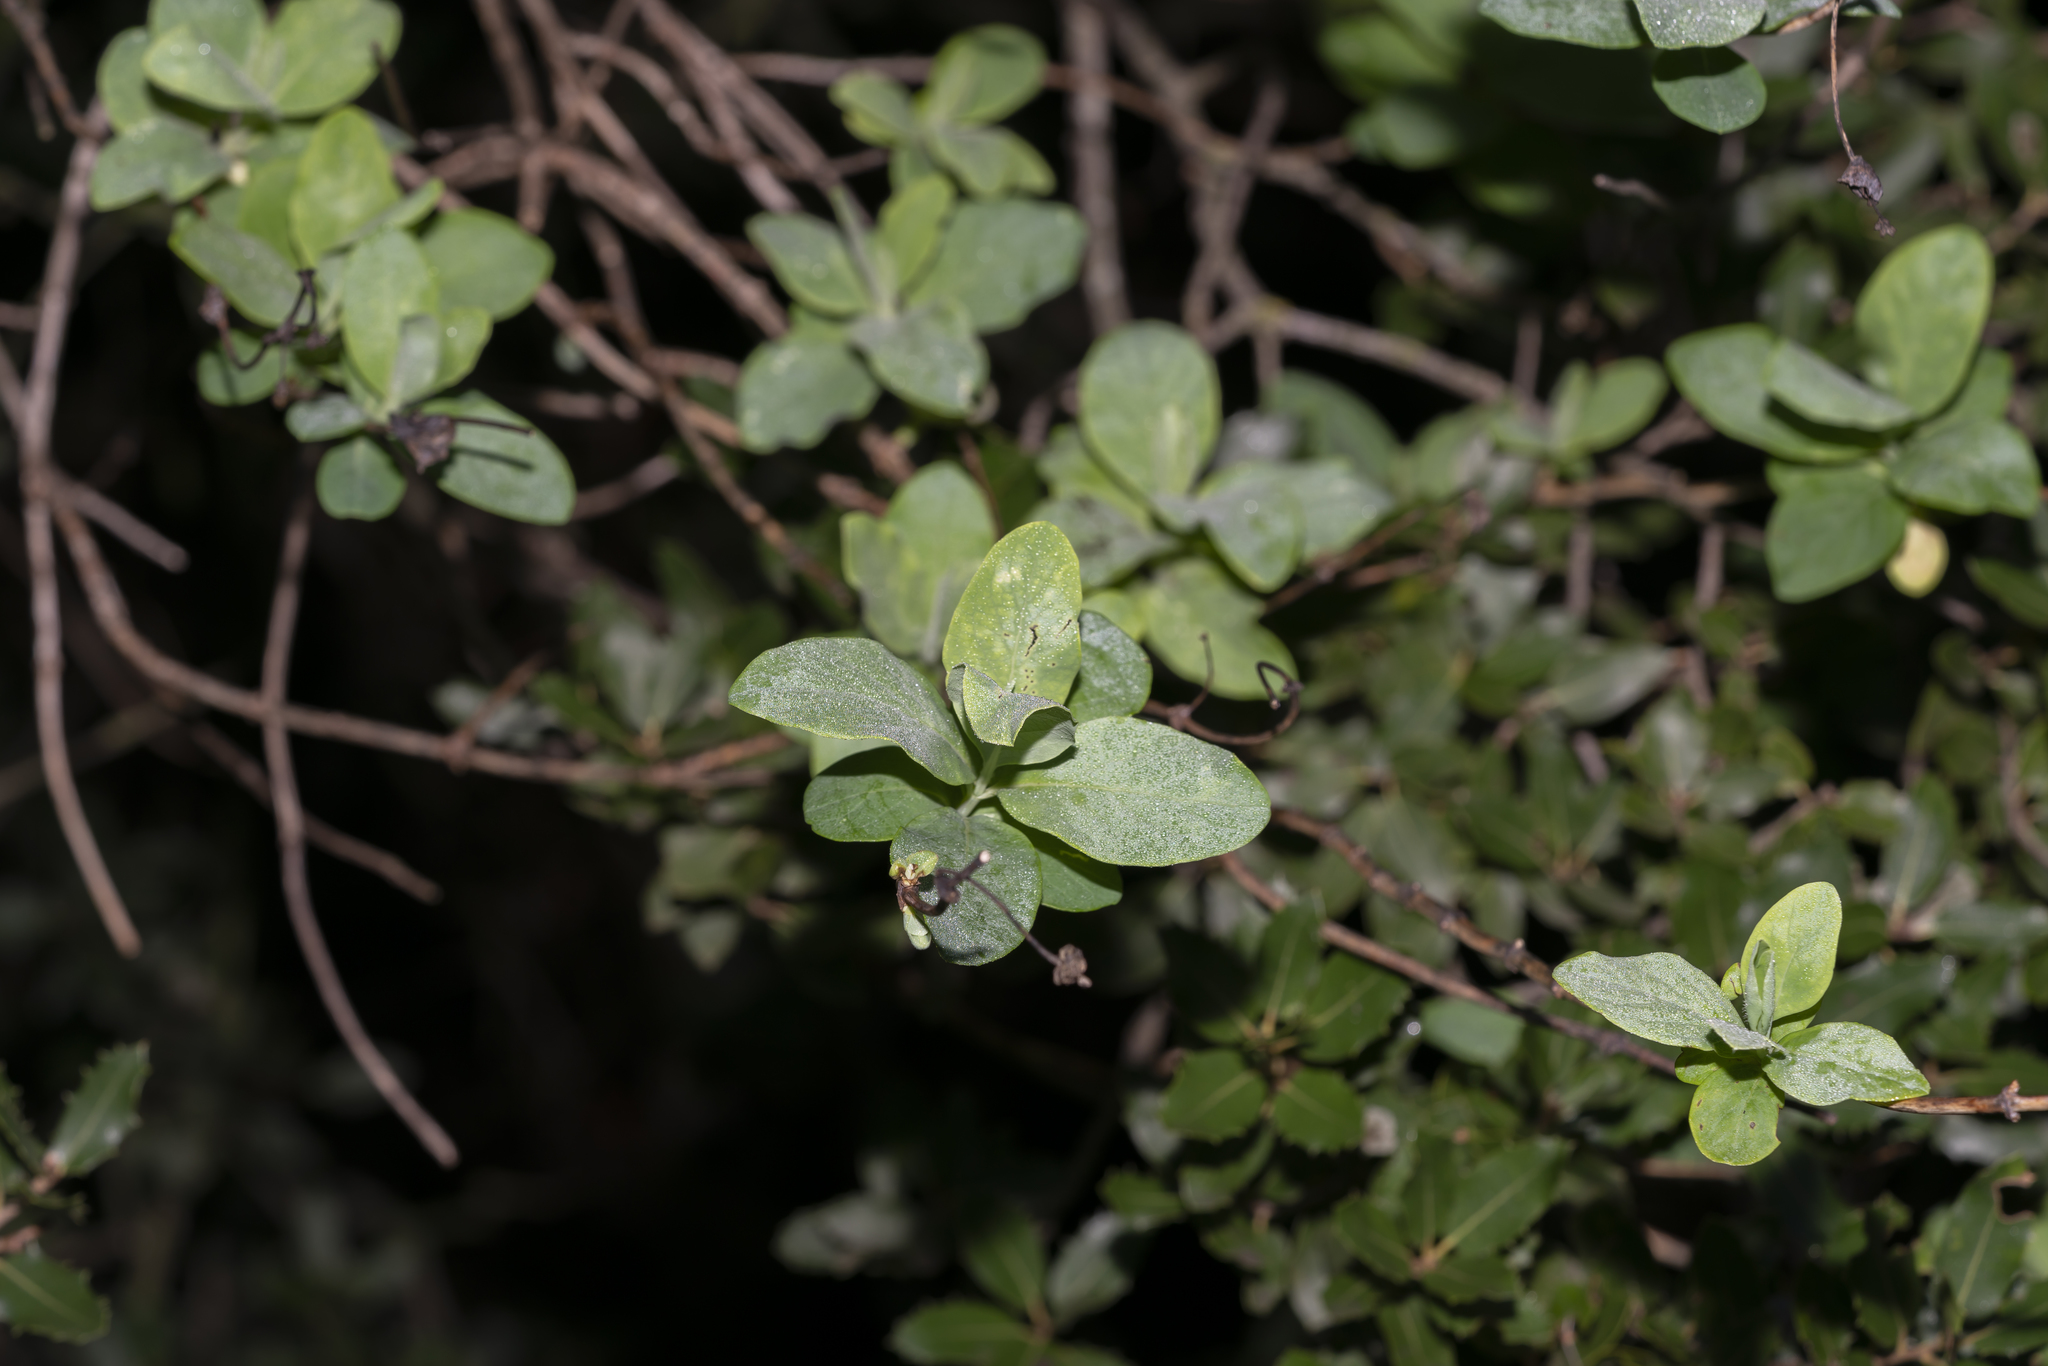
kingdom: Plantae
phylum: Tracheophyta
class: Magnoliopsida
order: Dipsacales
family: Caprifoliaceae
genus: Lonicera
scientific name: Lonicera etrusca
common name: Etruscan honeysuckle
